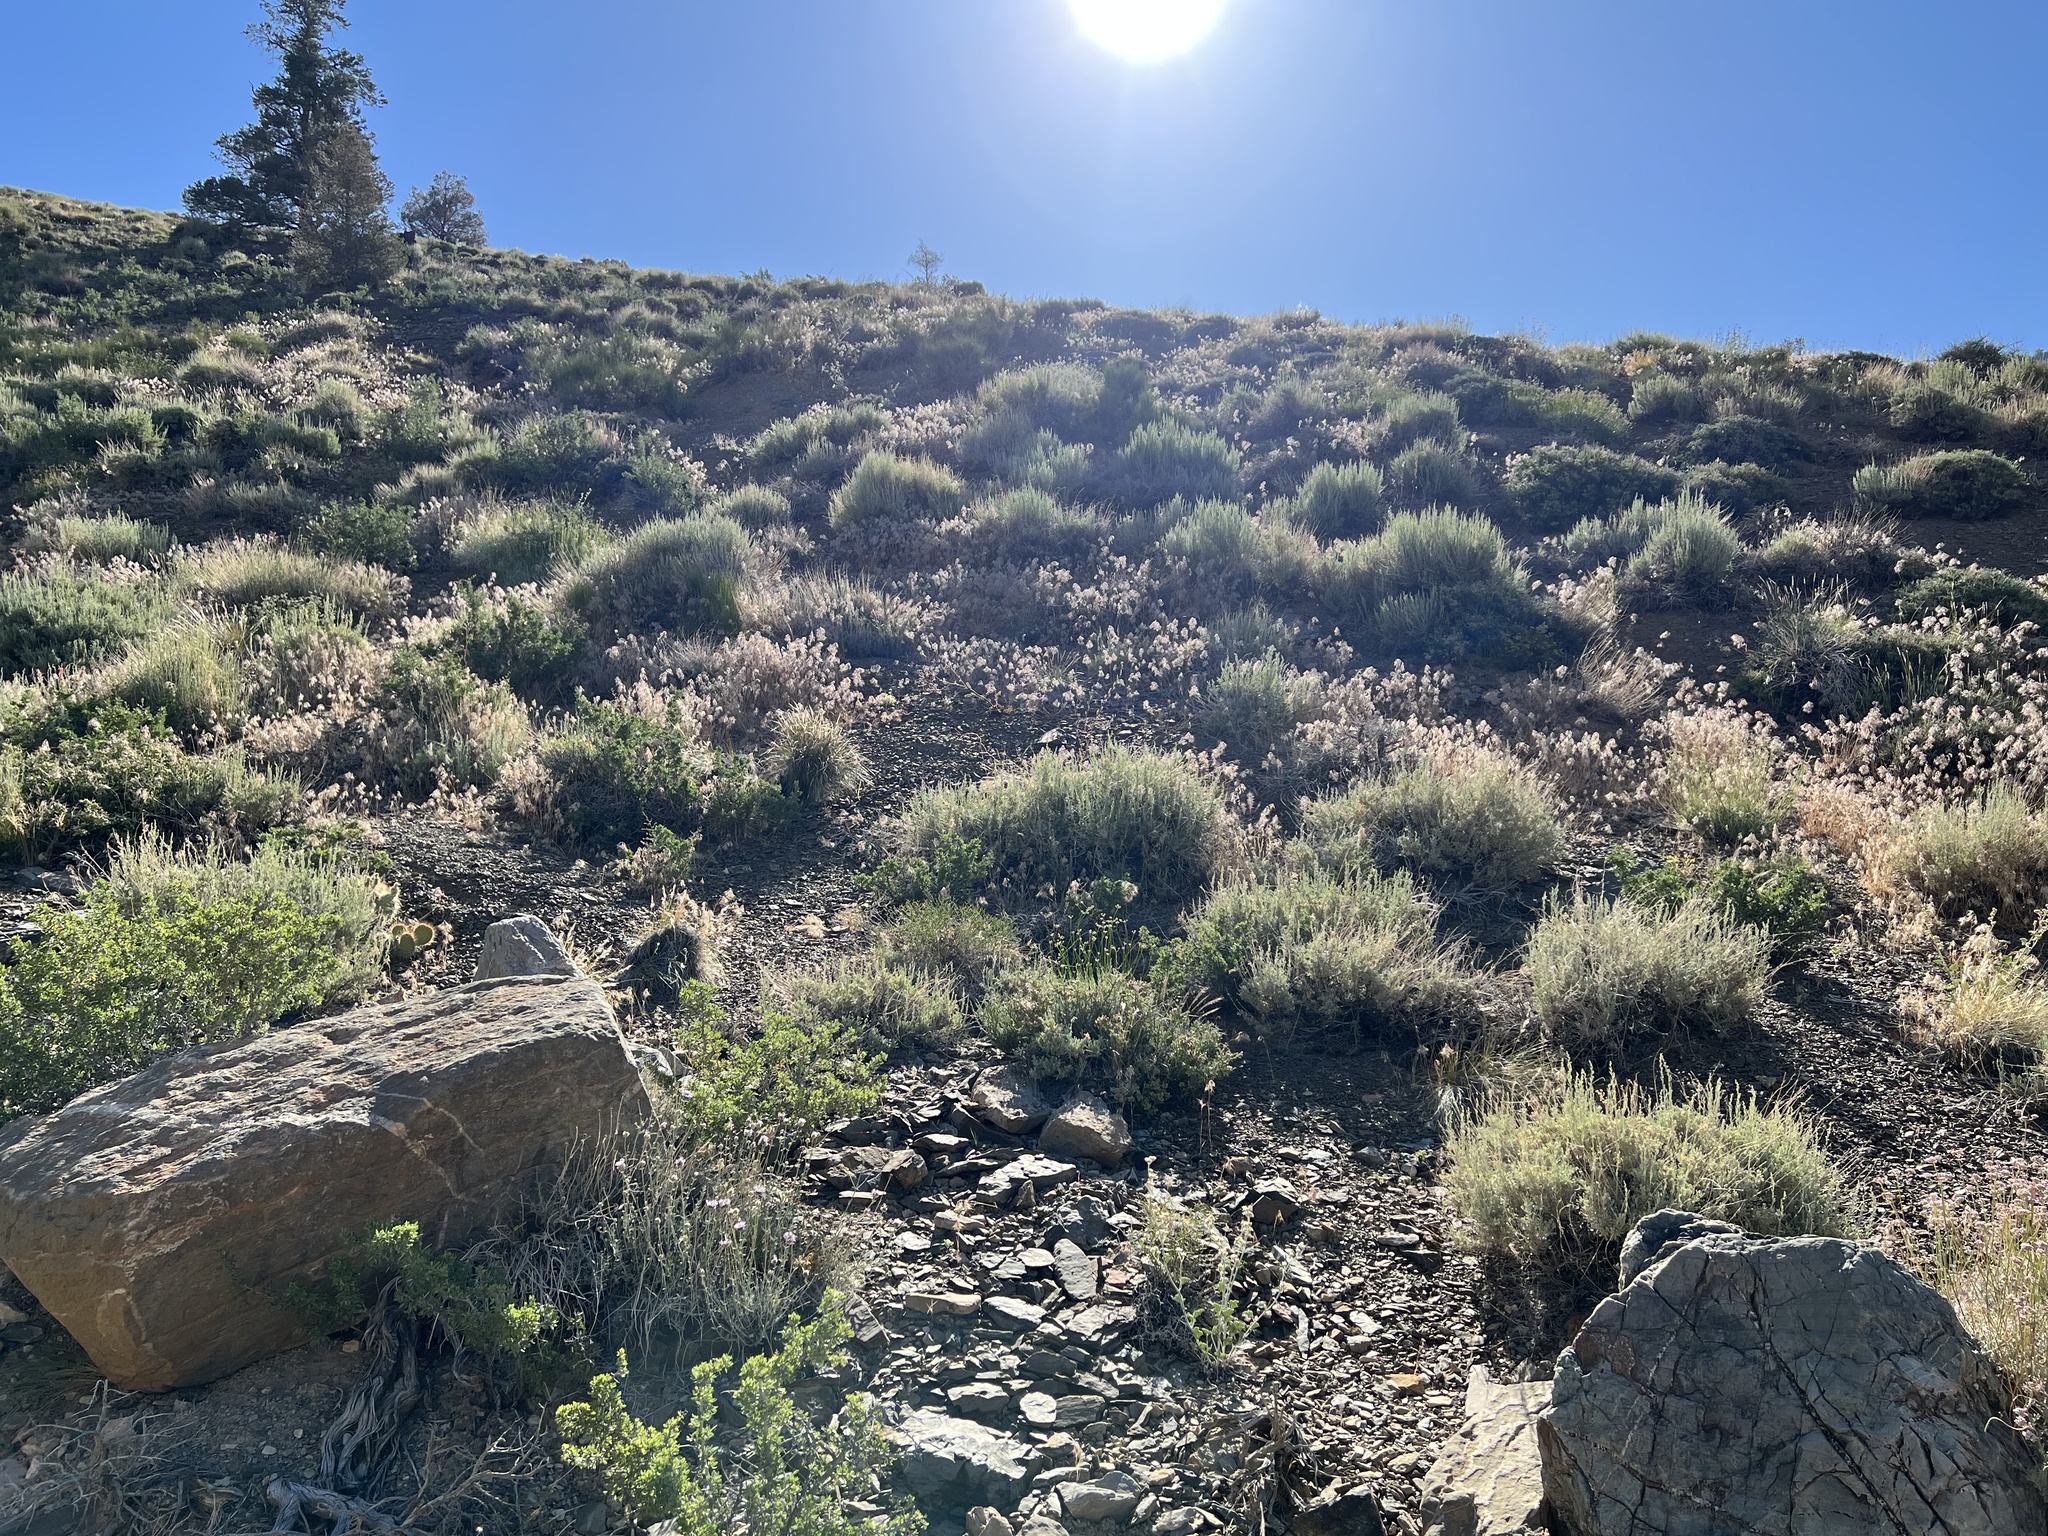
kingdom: Plantae
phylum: Tracheophyta
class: Liliopsida
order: Poales
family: Poaceae
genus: Bromus
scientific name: Bromus tectorum
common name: Cheatgrass
